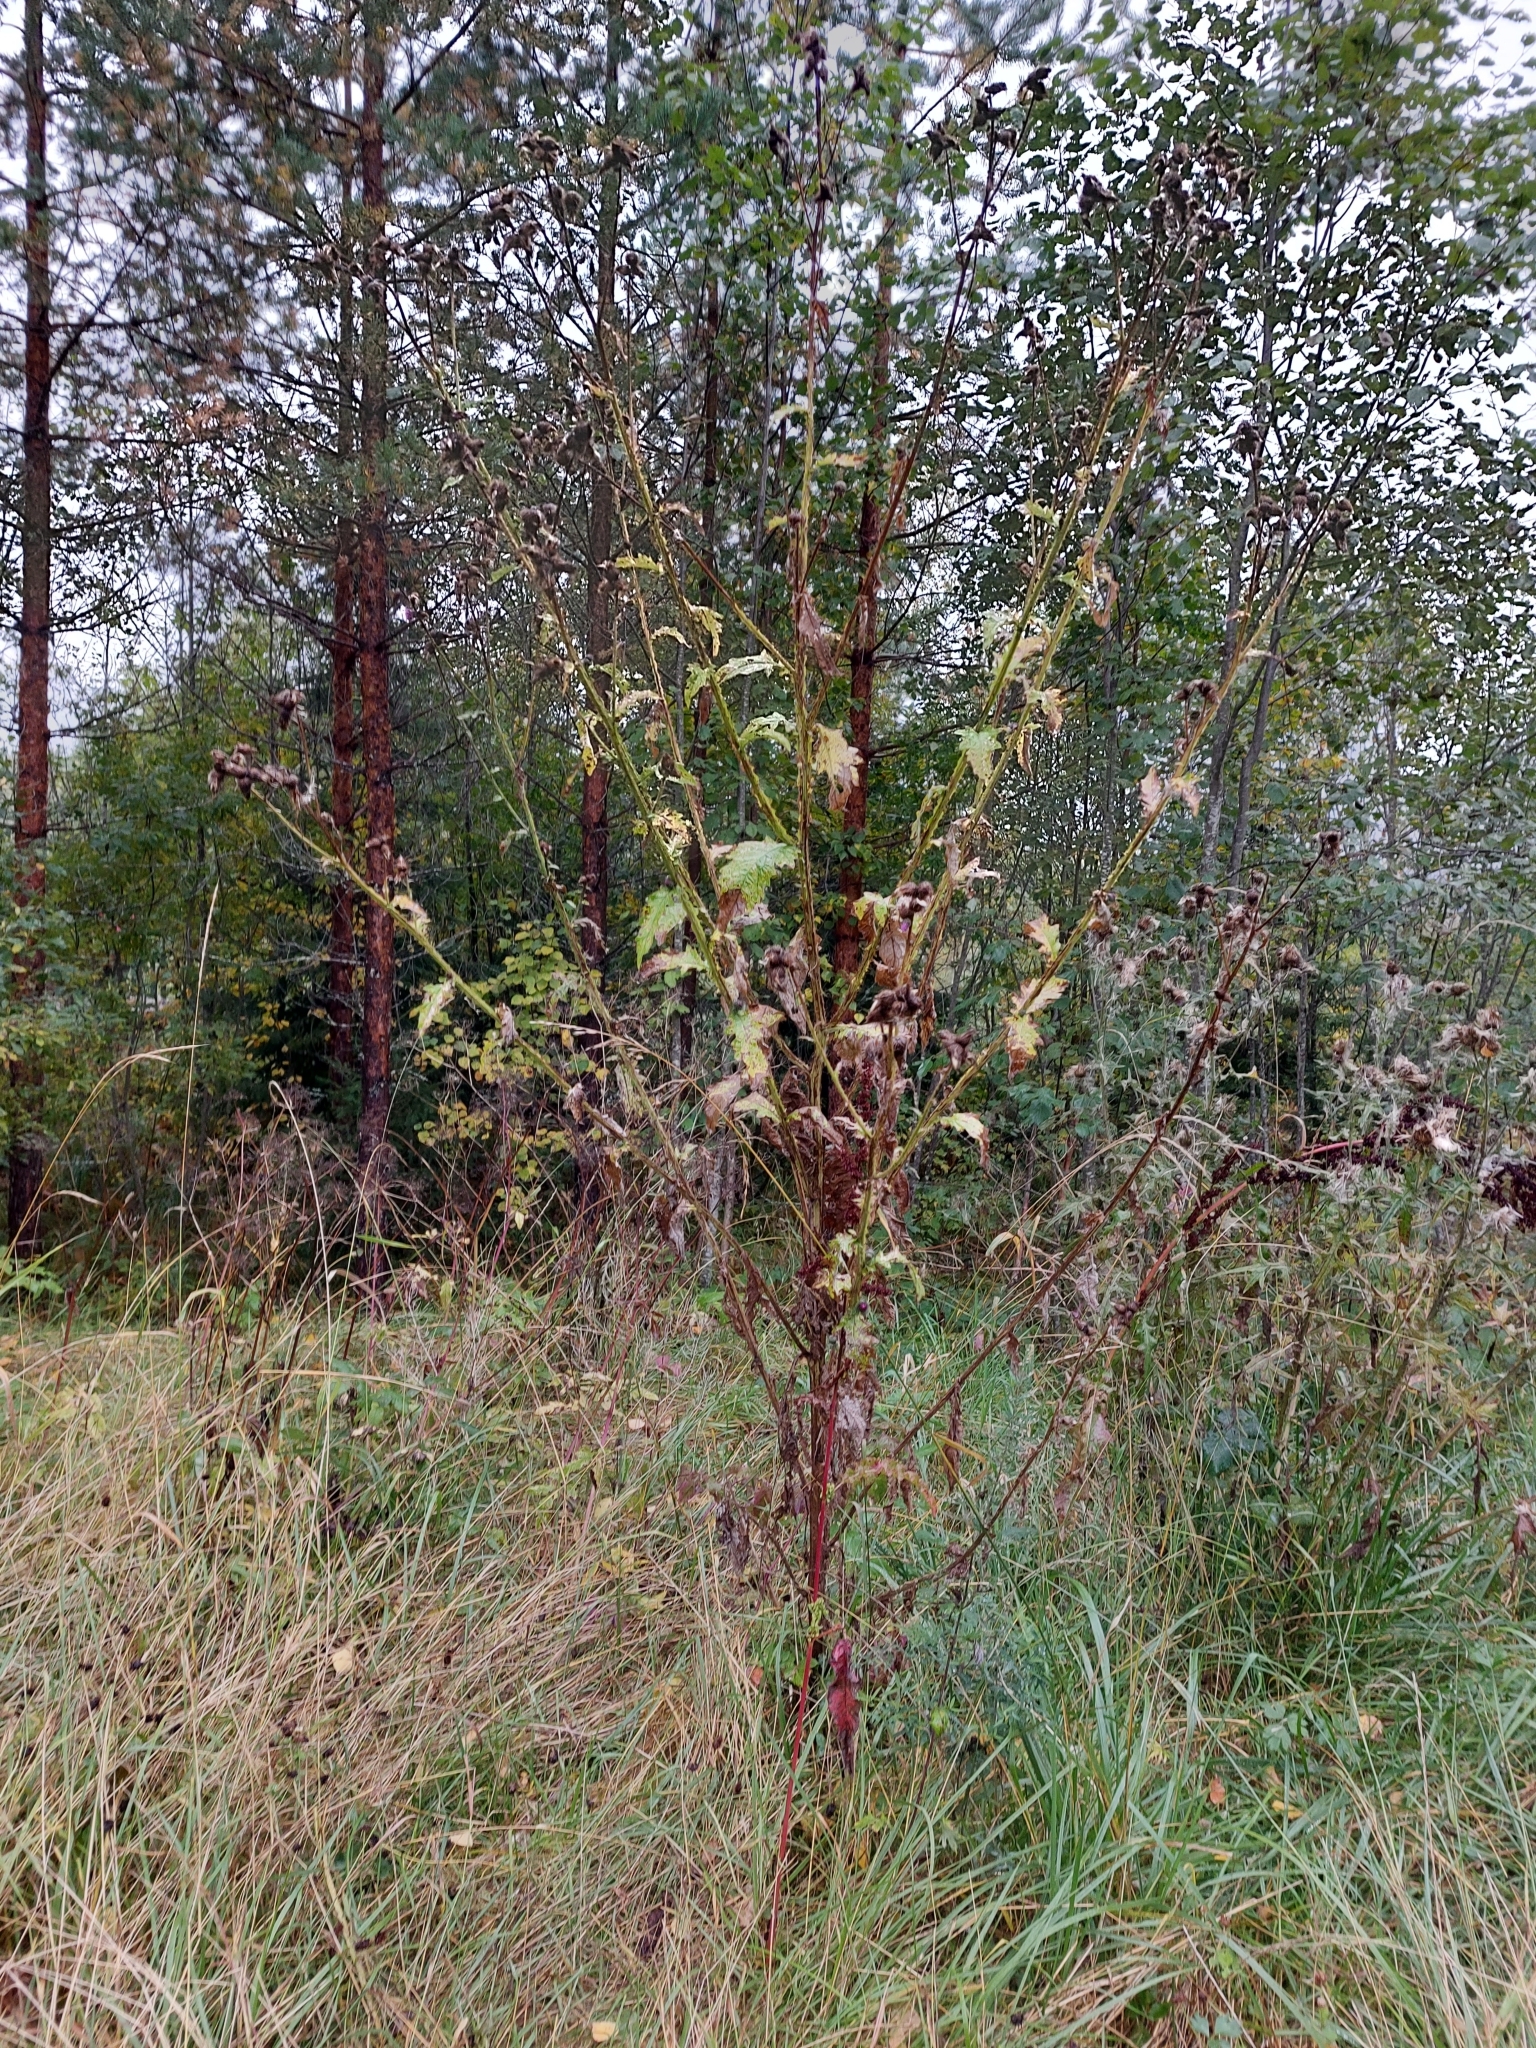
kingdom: Plantae
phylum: Tracheophyta
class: Magnoliopsida
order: Asterales
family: Asteraceae
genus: Carduus
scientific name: Carduus crispus
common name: Welted thistle
